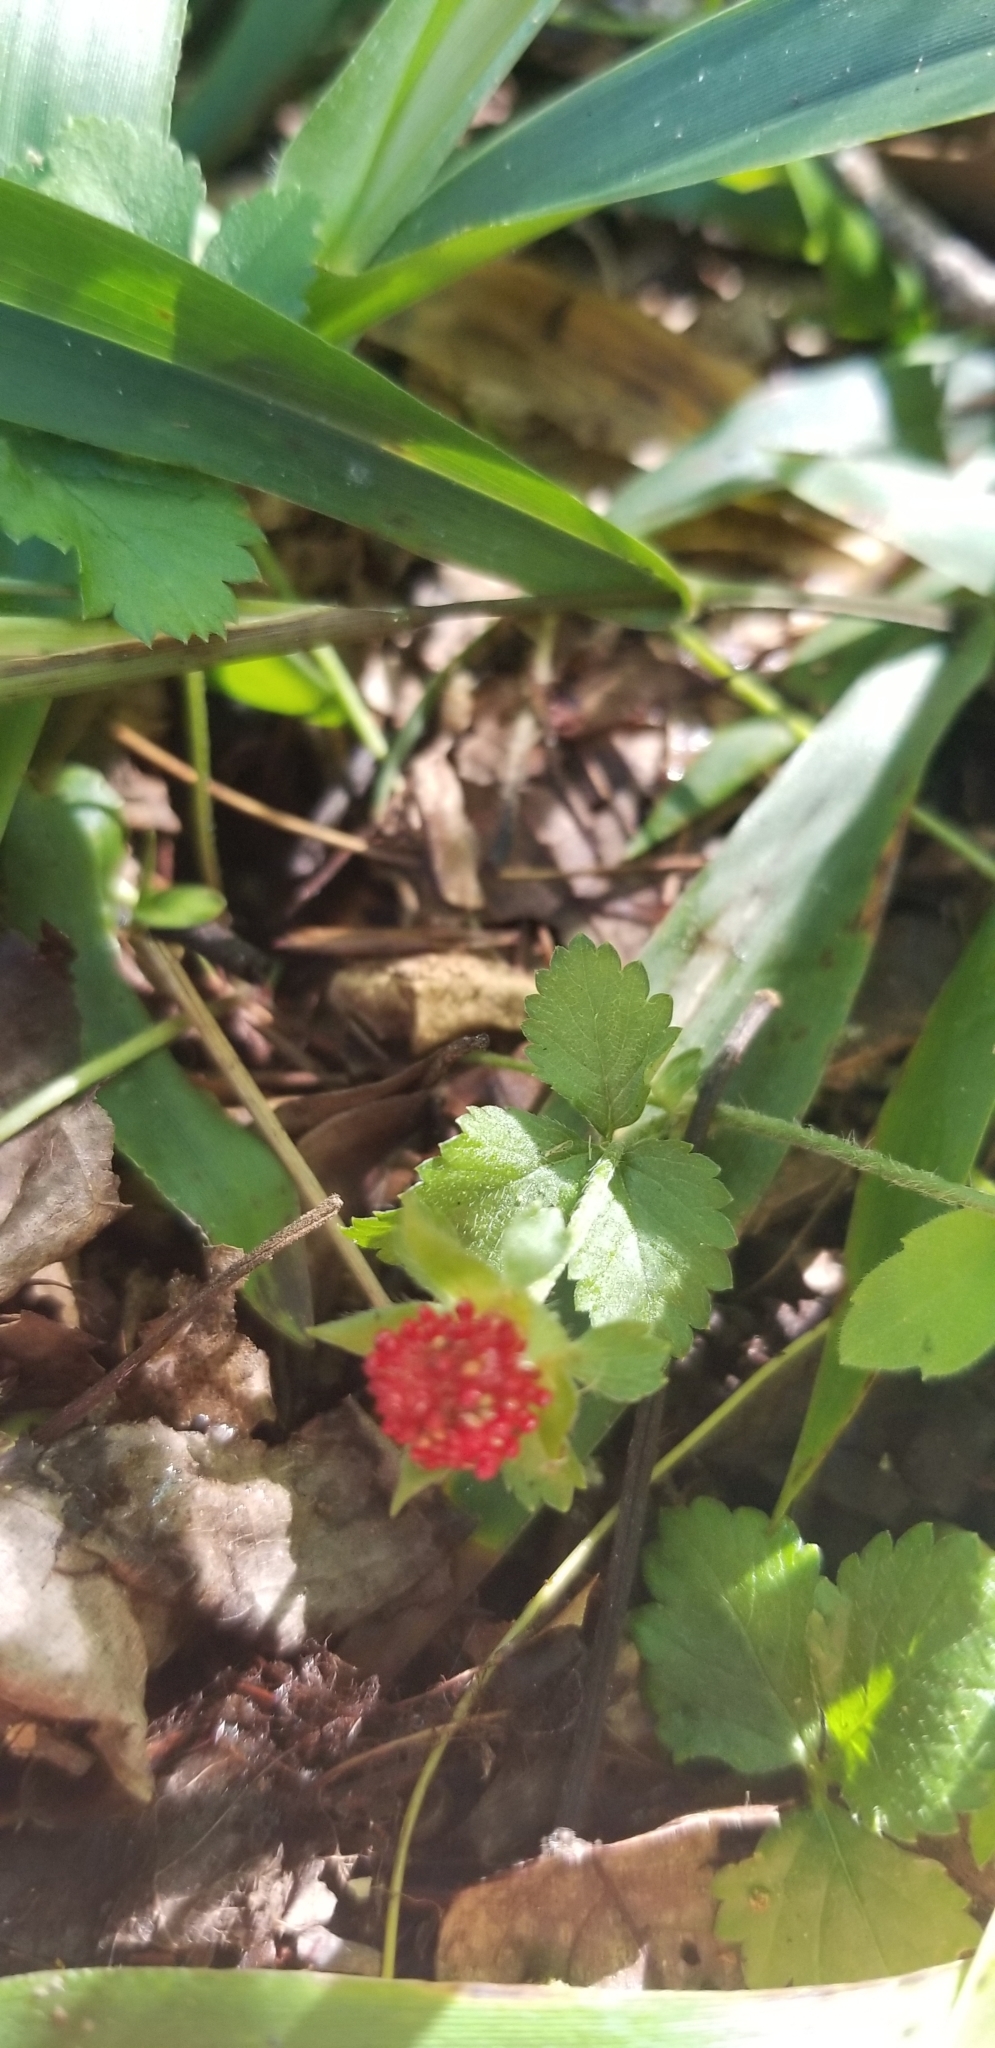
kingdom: Plantae
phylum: Tracheophyta
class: Magnoliopsida
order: Rosales
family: Rosaceae
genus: Potentilla
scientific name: Potentilla indica
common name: Yellow-flowered strawberry
